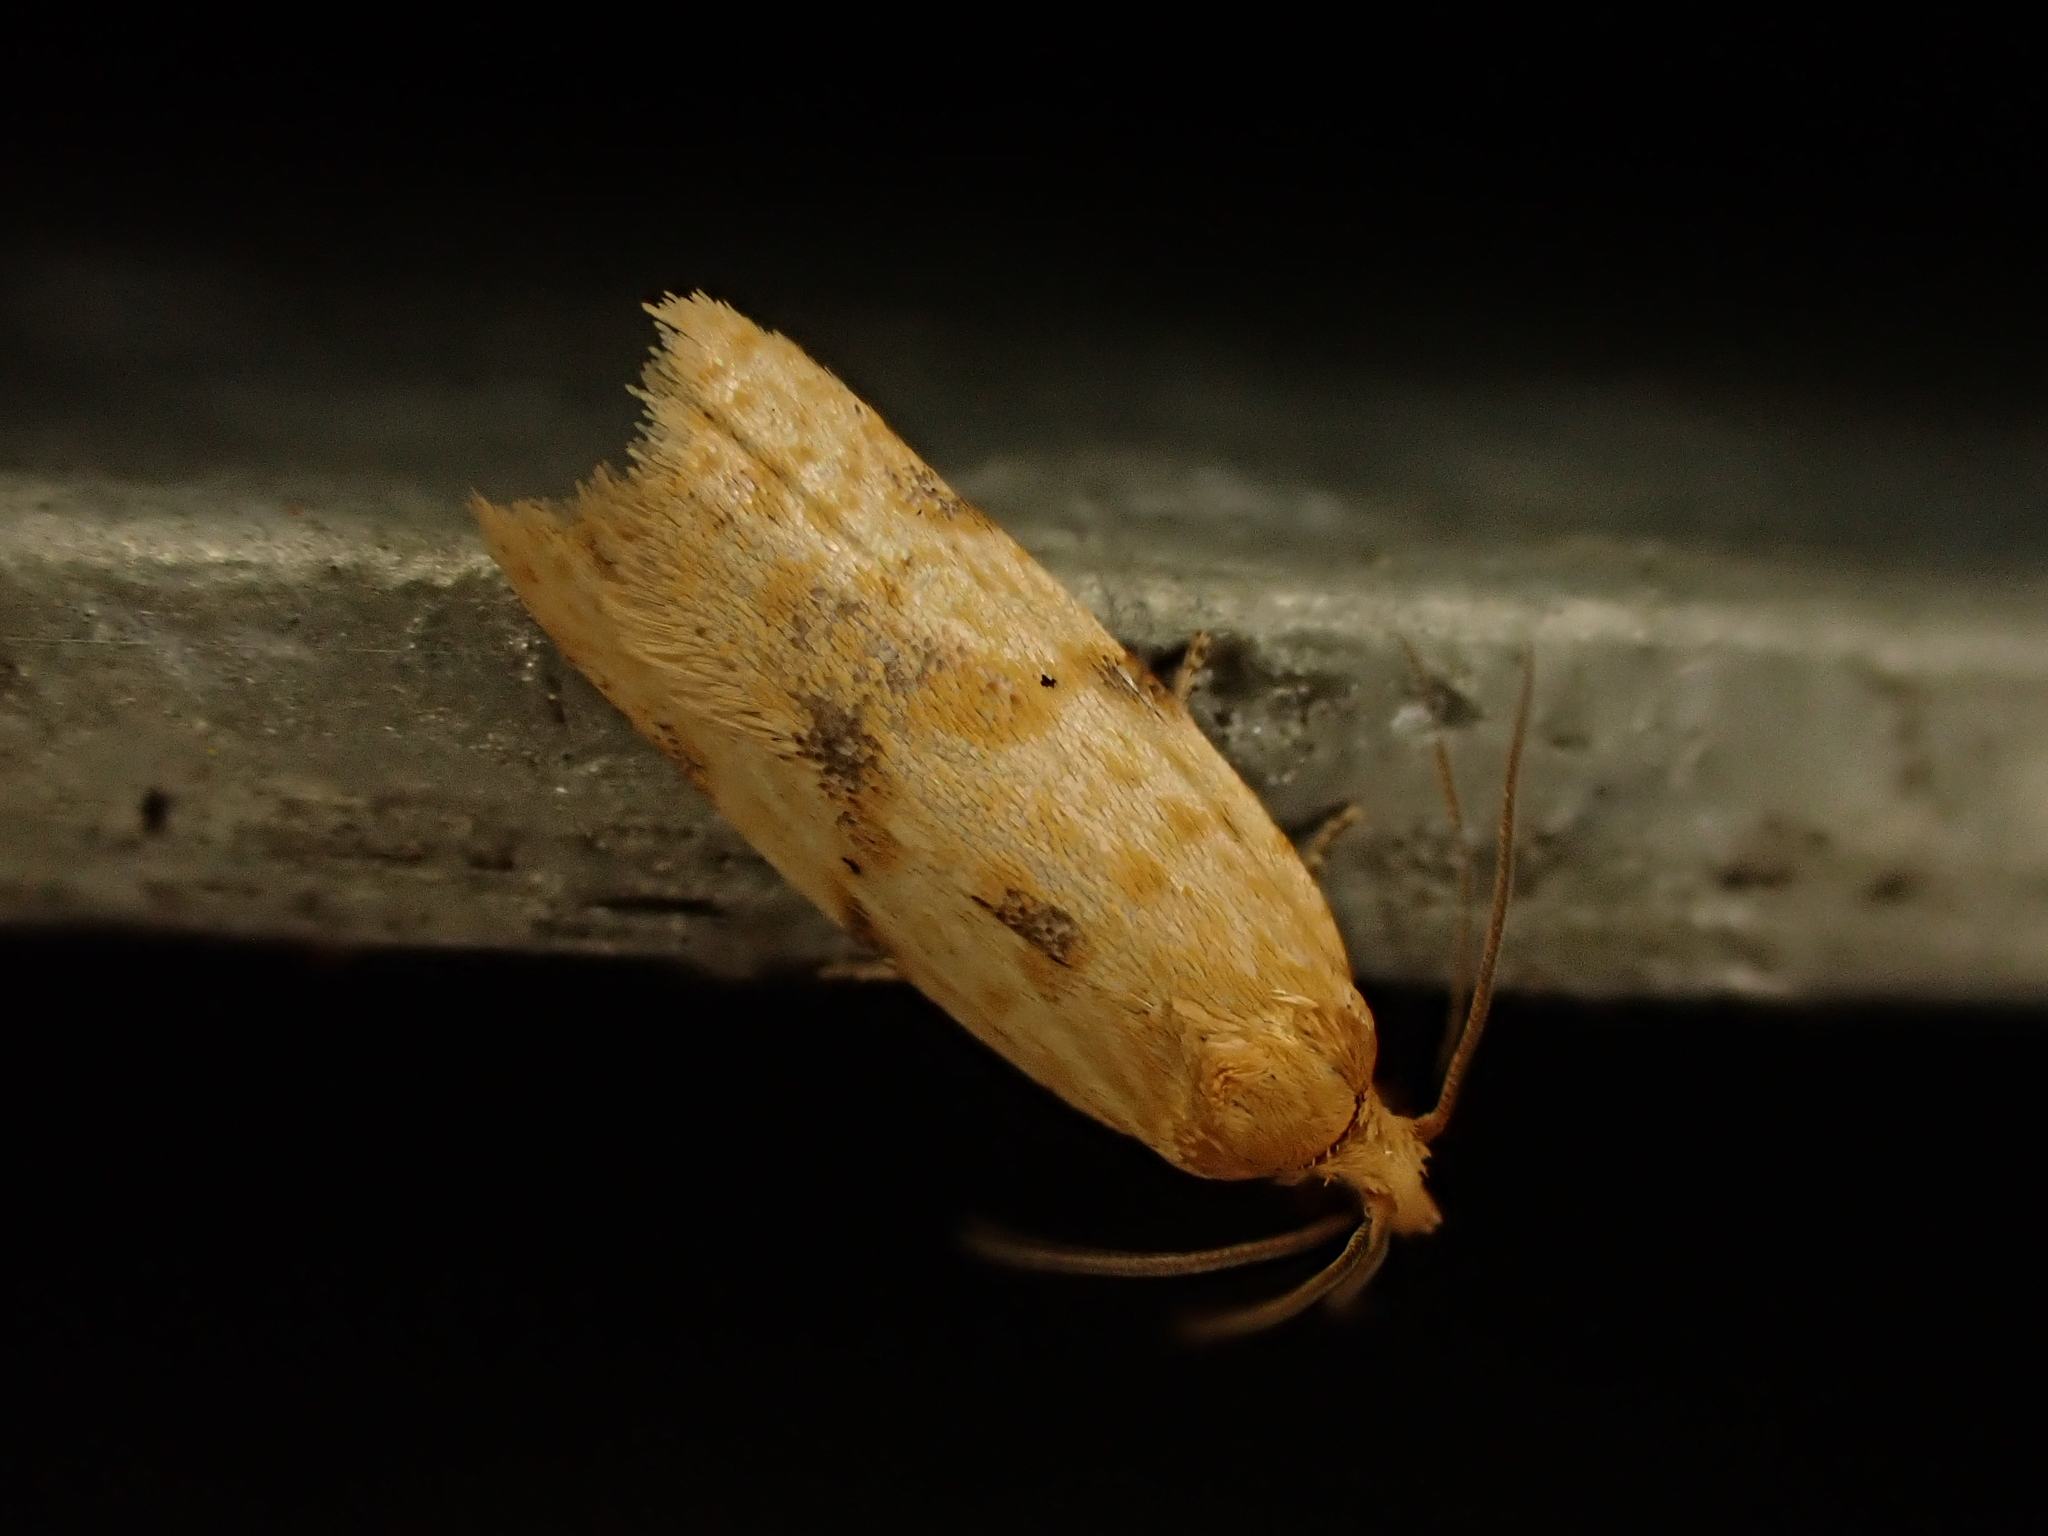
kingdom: Animalia
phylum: Arthropoda
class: Insecta
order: Lepidoptera
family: Tortricidae
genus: Clepsis
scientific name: Clepsis
